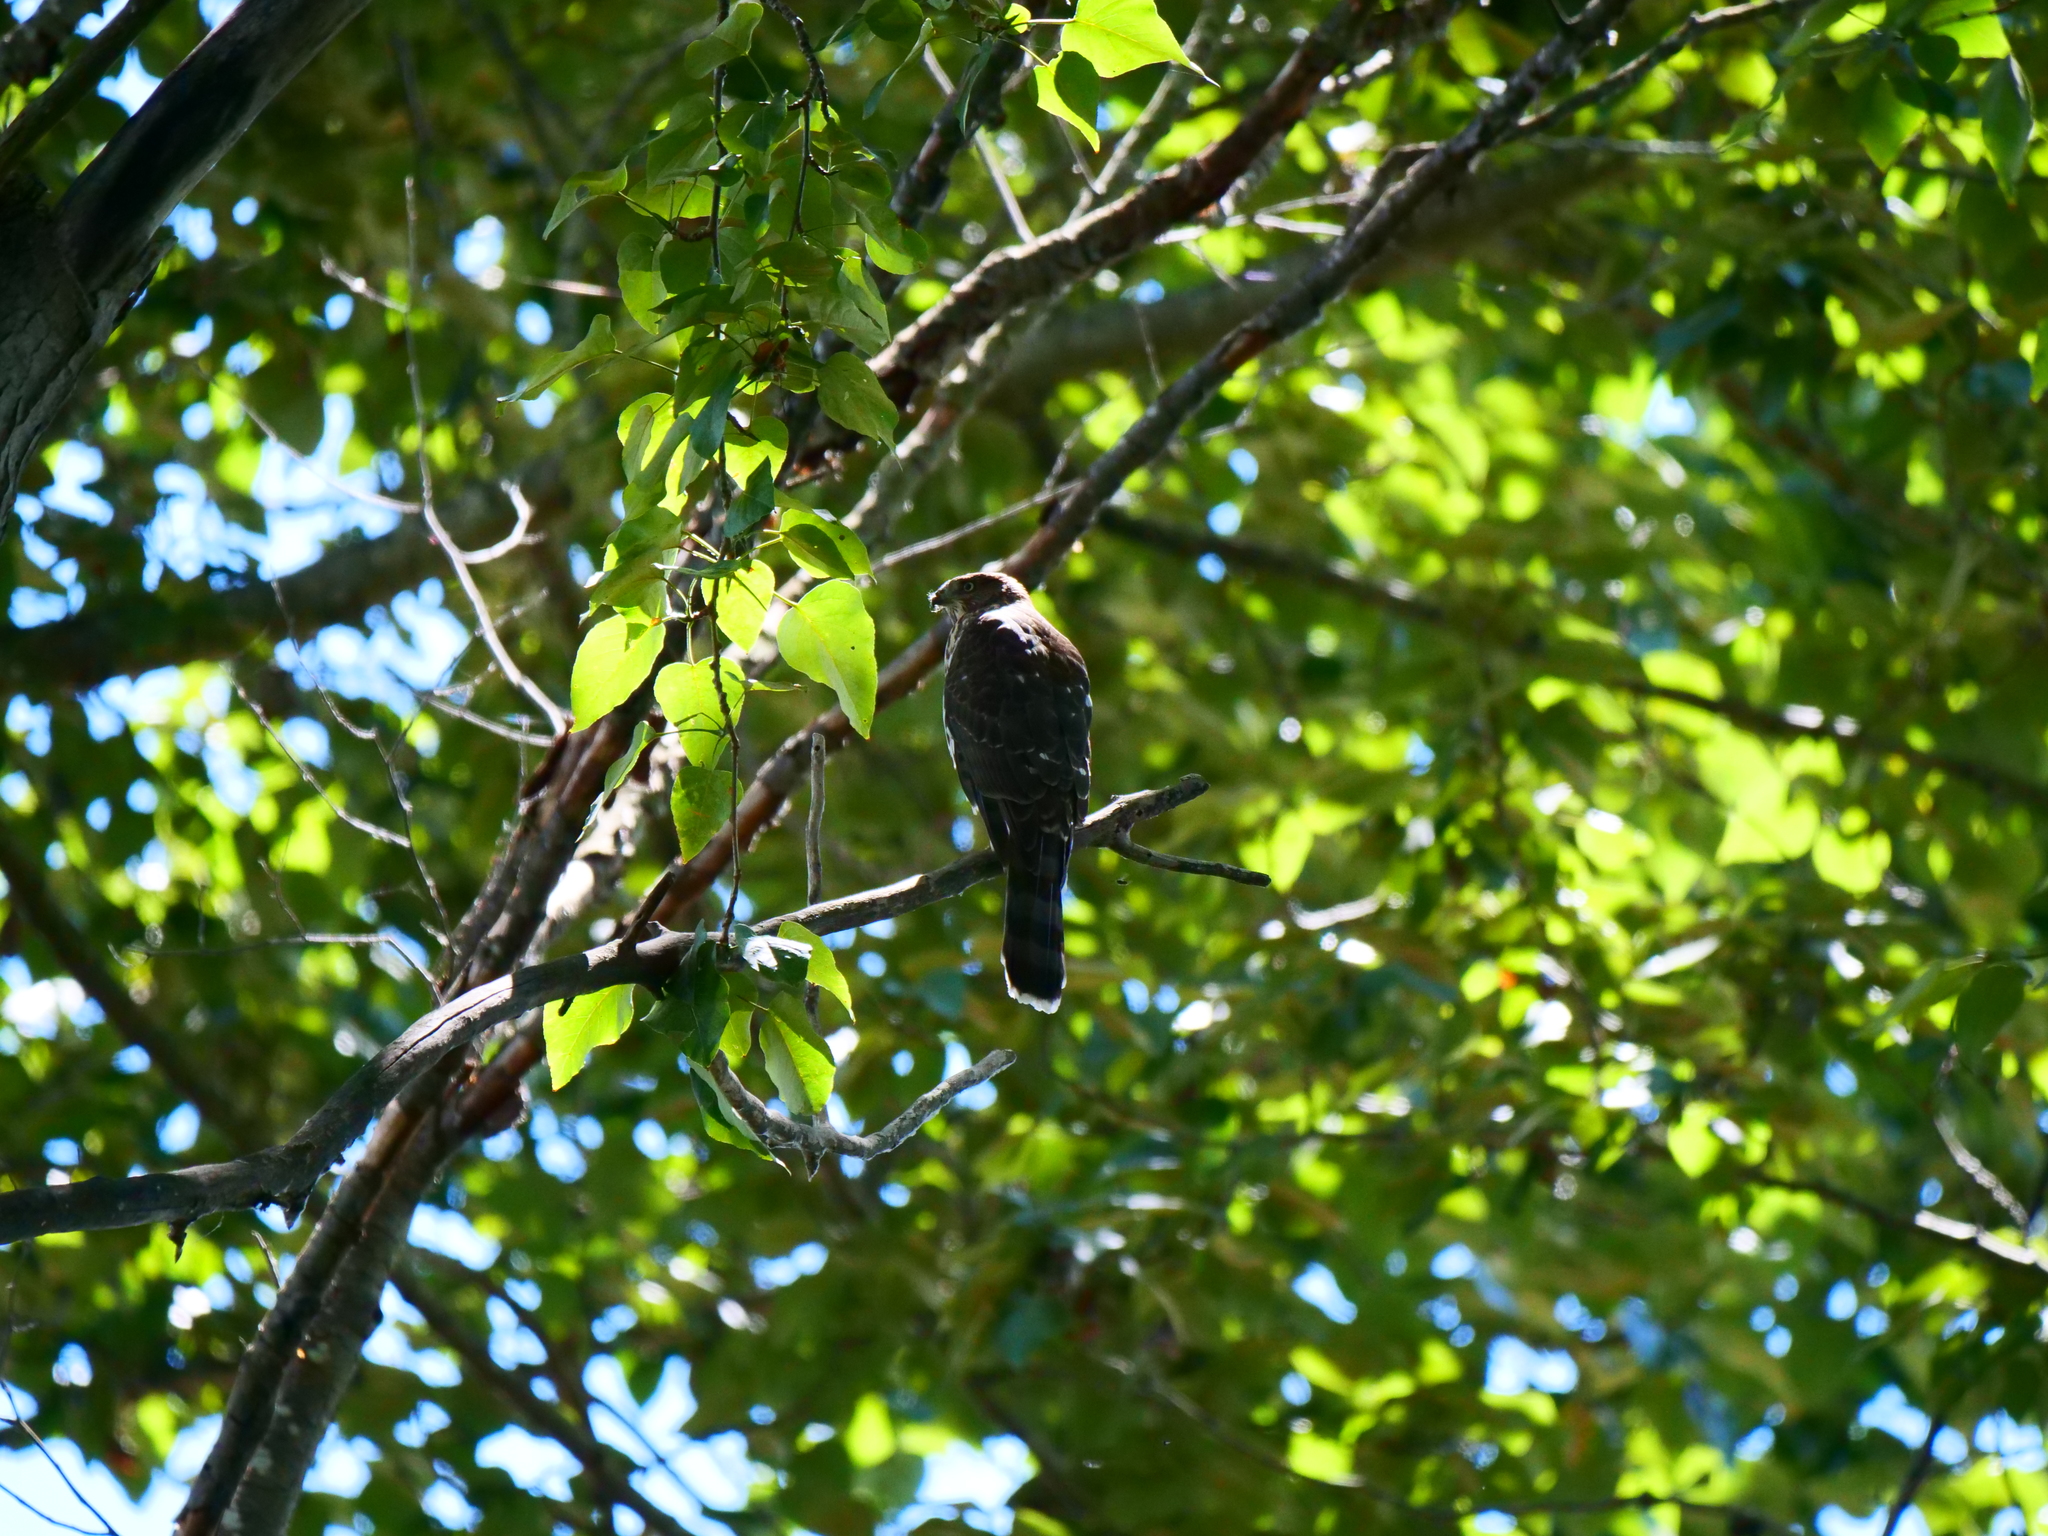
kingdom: Animalia
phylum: Chordata
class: Aves
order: Accipitriformes
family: Accipitridae
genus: Accipiter
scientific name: Accipiter cooperii
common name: Cooper's hawk
